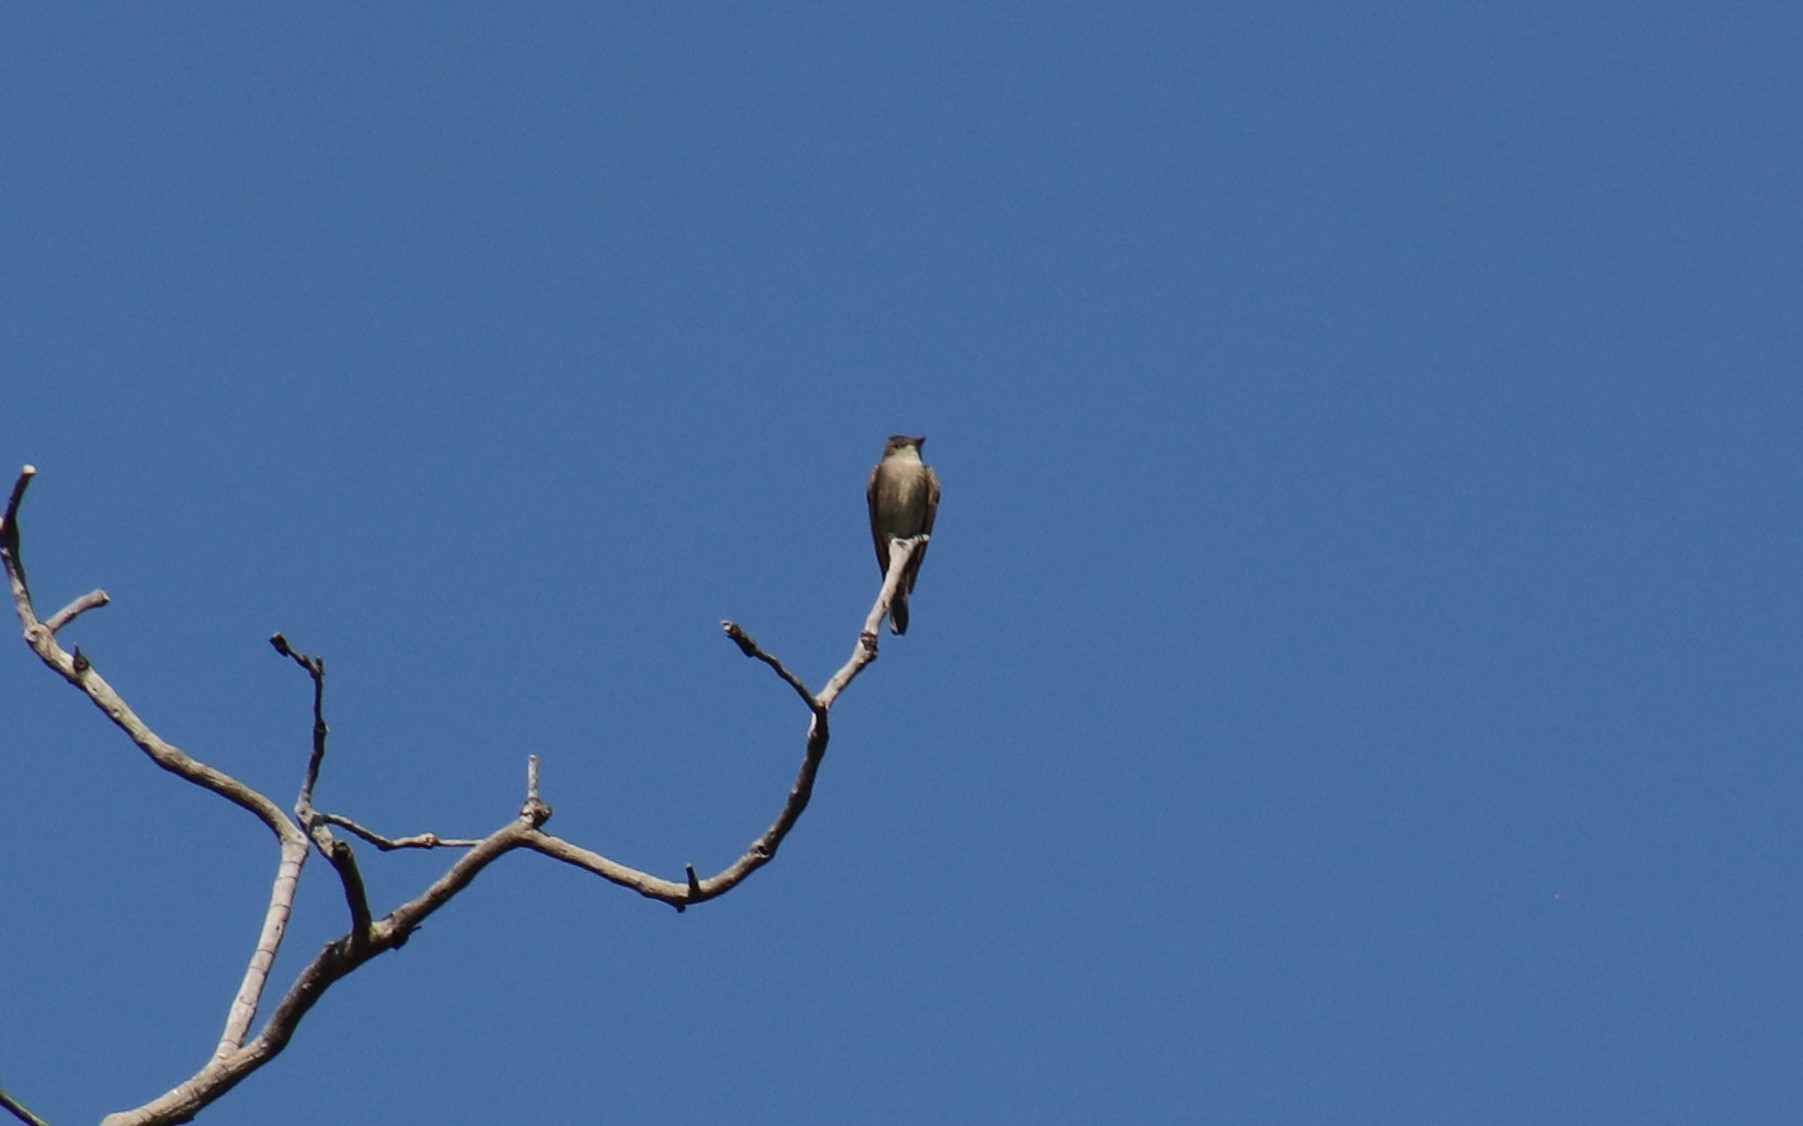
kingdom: Animalia
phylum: Chordata
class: Aves
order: Passeriformes
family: Tyrannidae
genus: Contopus
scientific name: Contopus sordidulus
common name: Western wood-pewee
